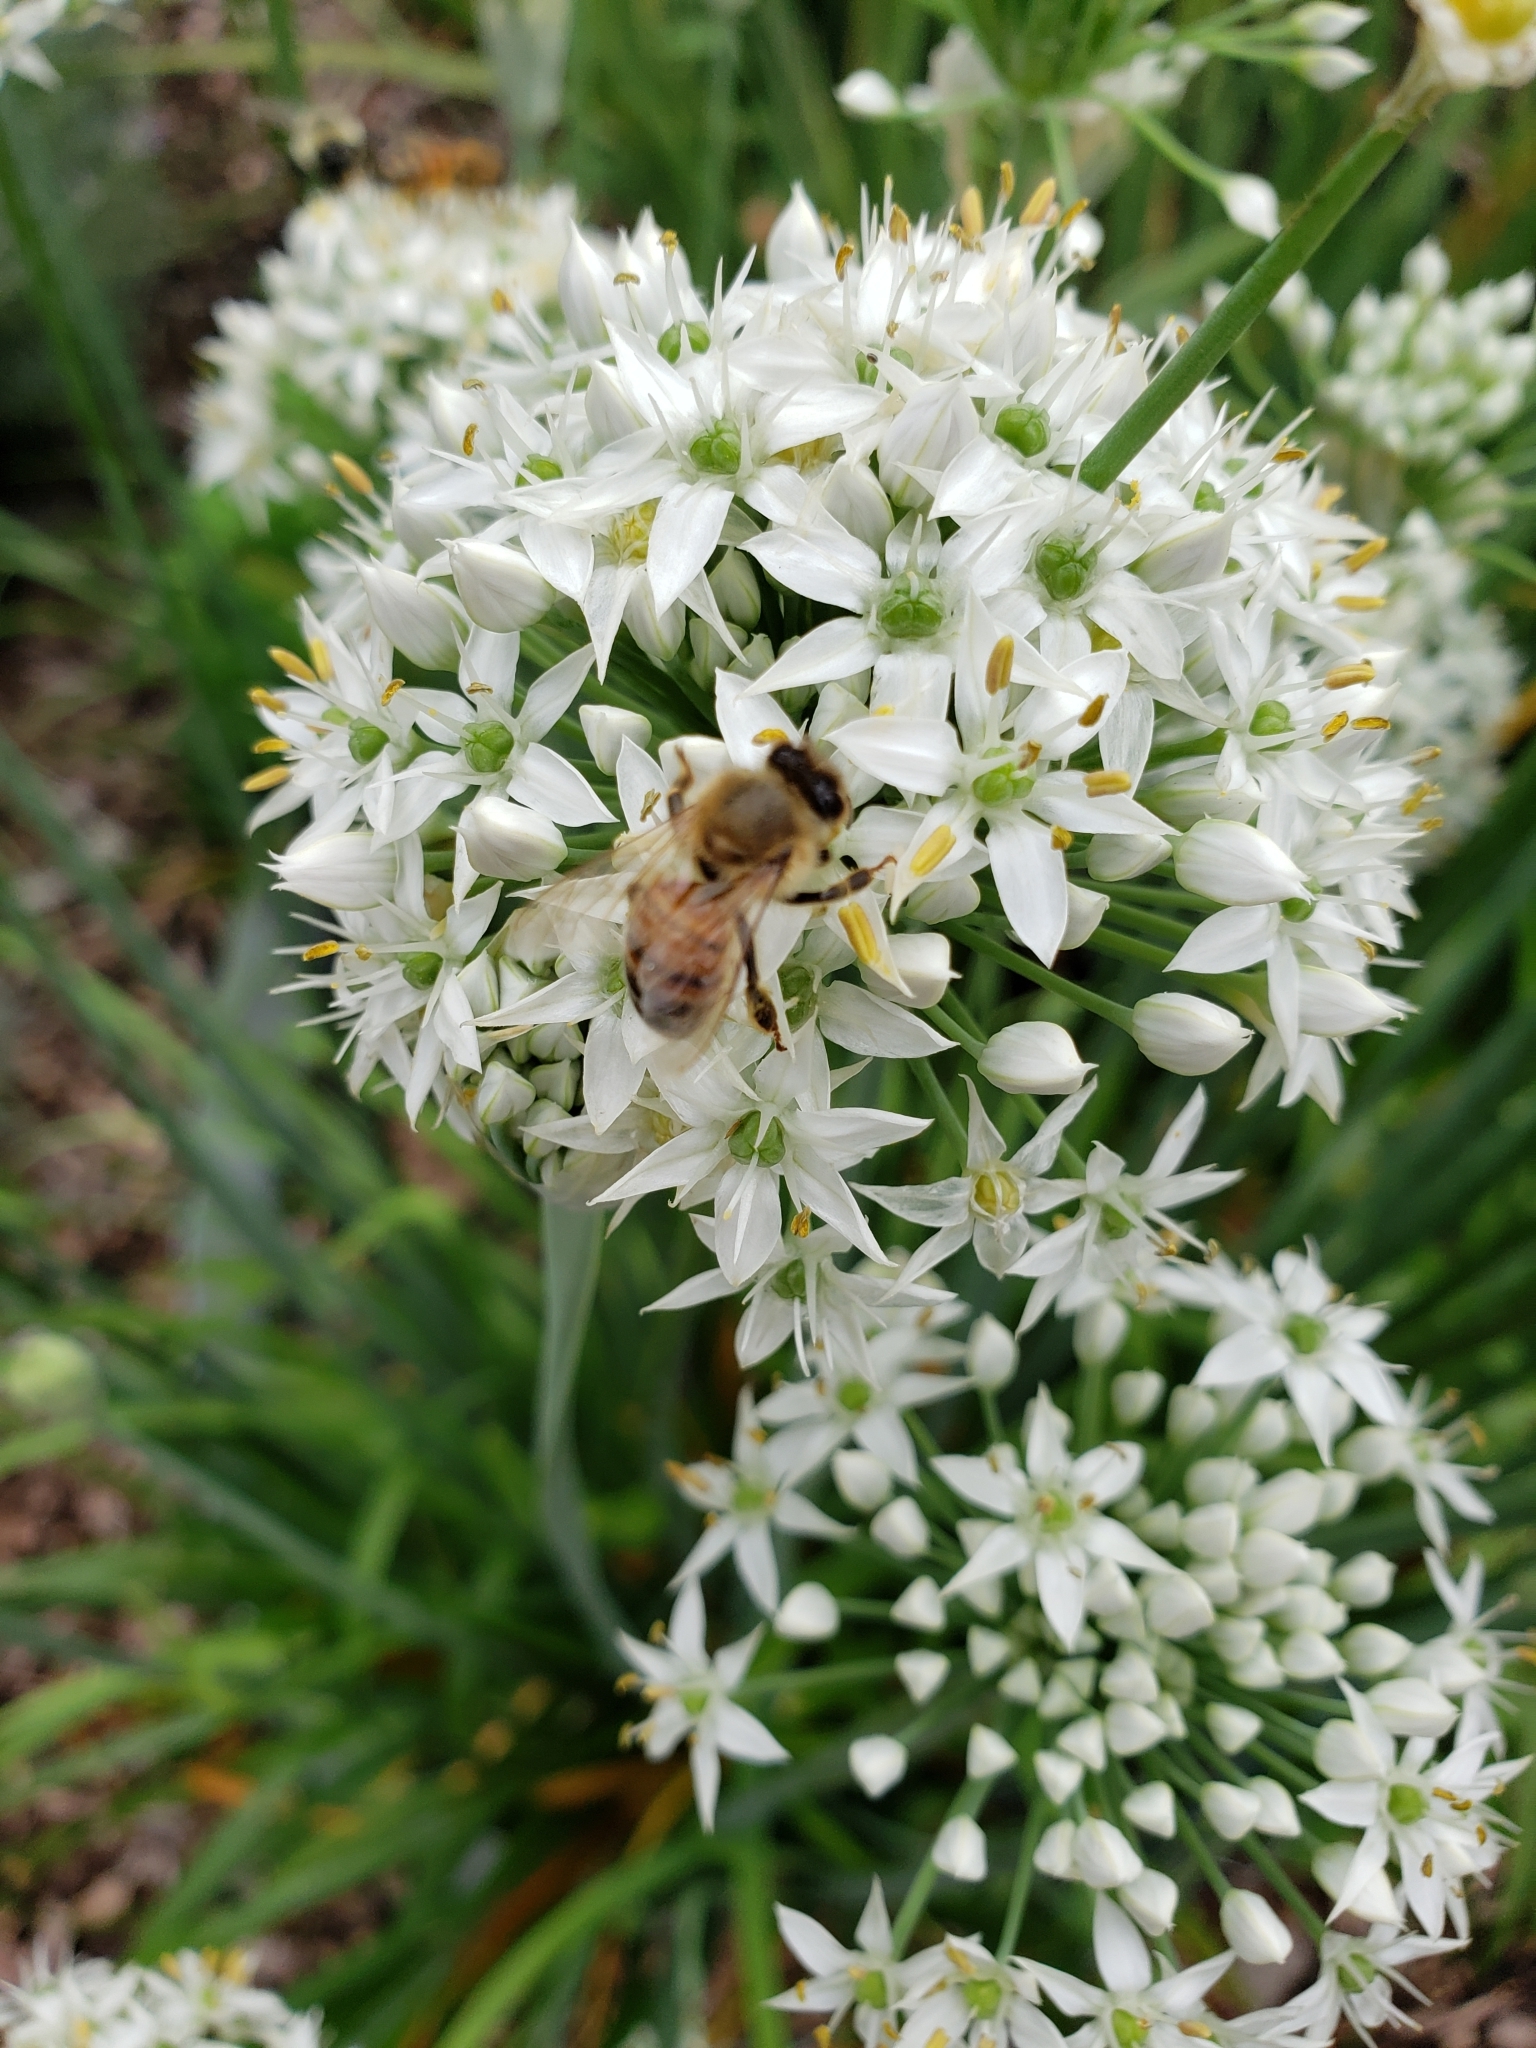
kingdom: Animalia
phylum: Arthropoda
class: Insecta
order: Hymenoptera
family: Apidae
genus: Apis
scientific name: Apis mellifera
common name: Honey bee
